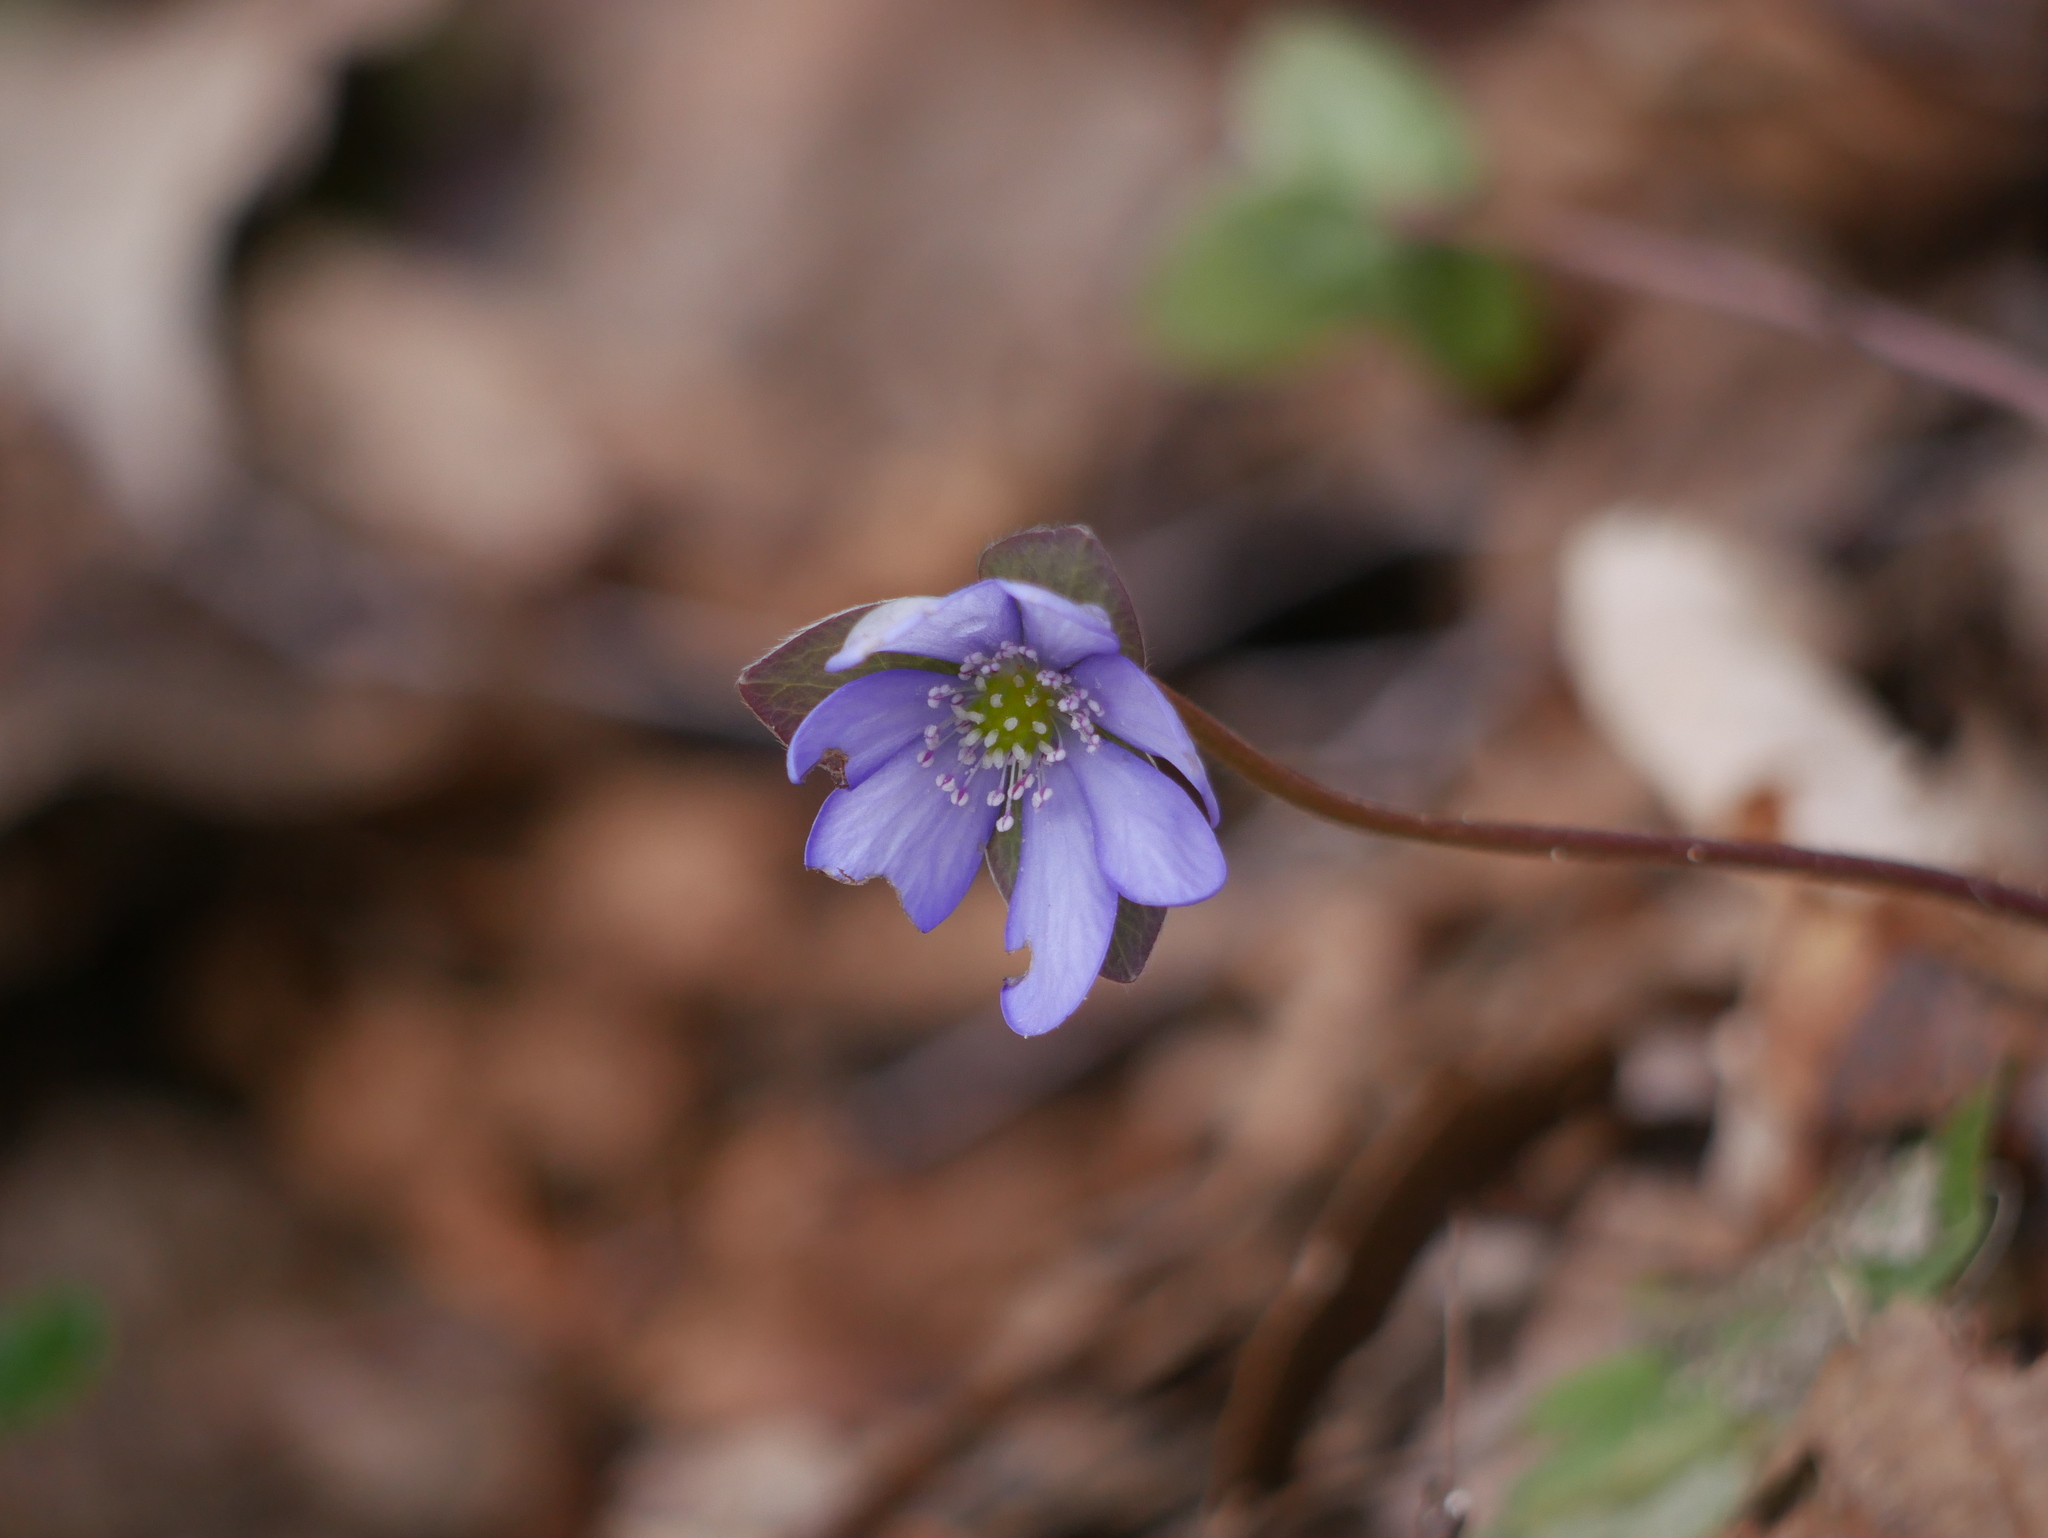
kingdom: Plantae
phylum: Tracheophyta
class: Magnoliopsida
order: Ranunculales
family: Ranunculaceae
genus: Hepatica
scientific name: Hepatica nobilis
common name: Liverleaf
